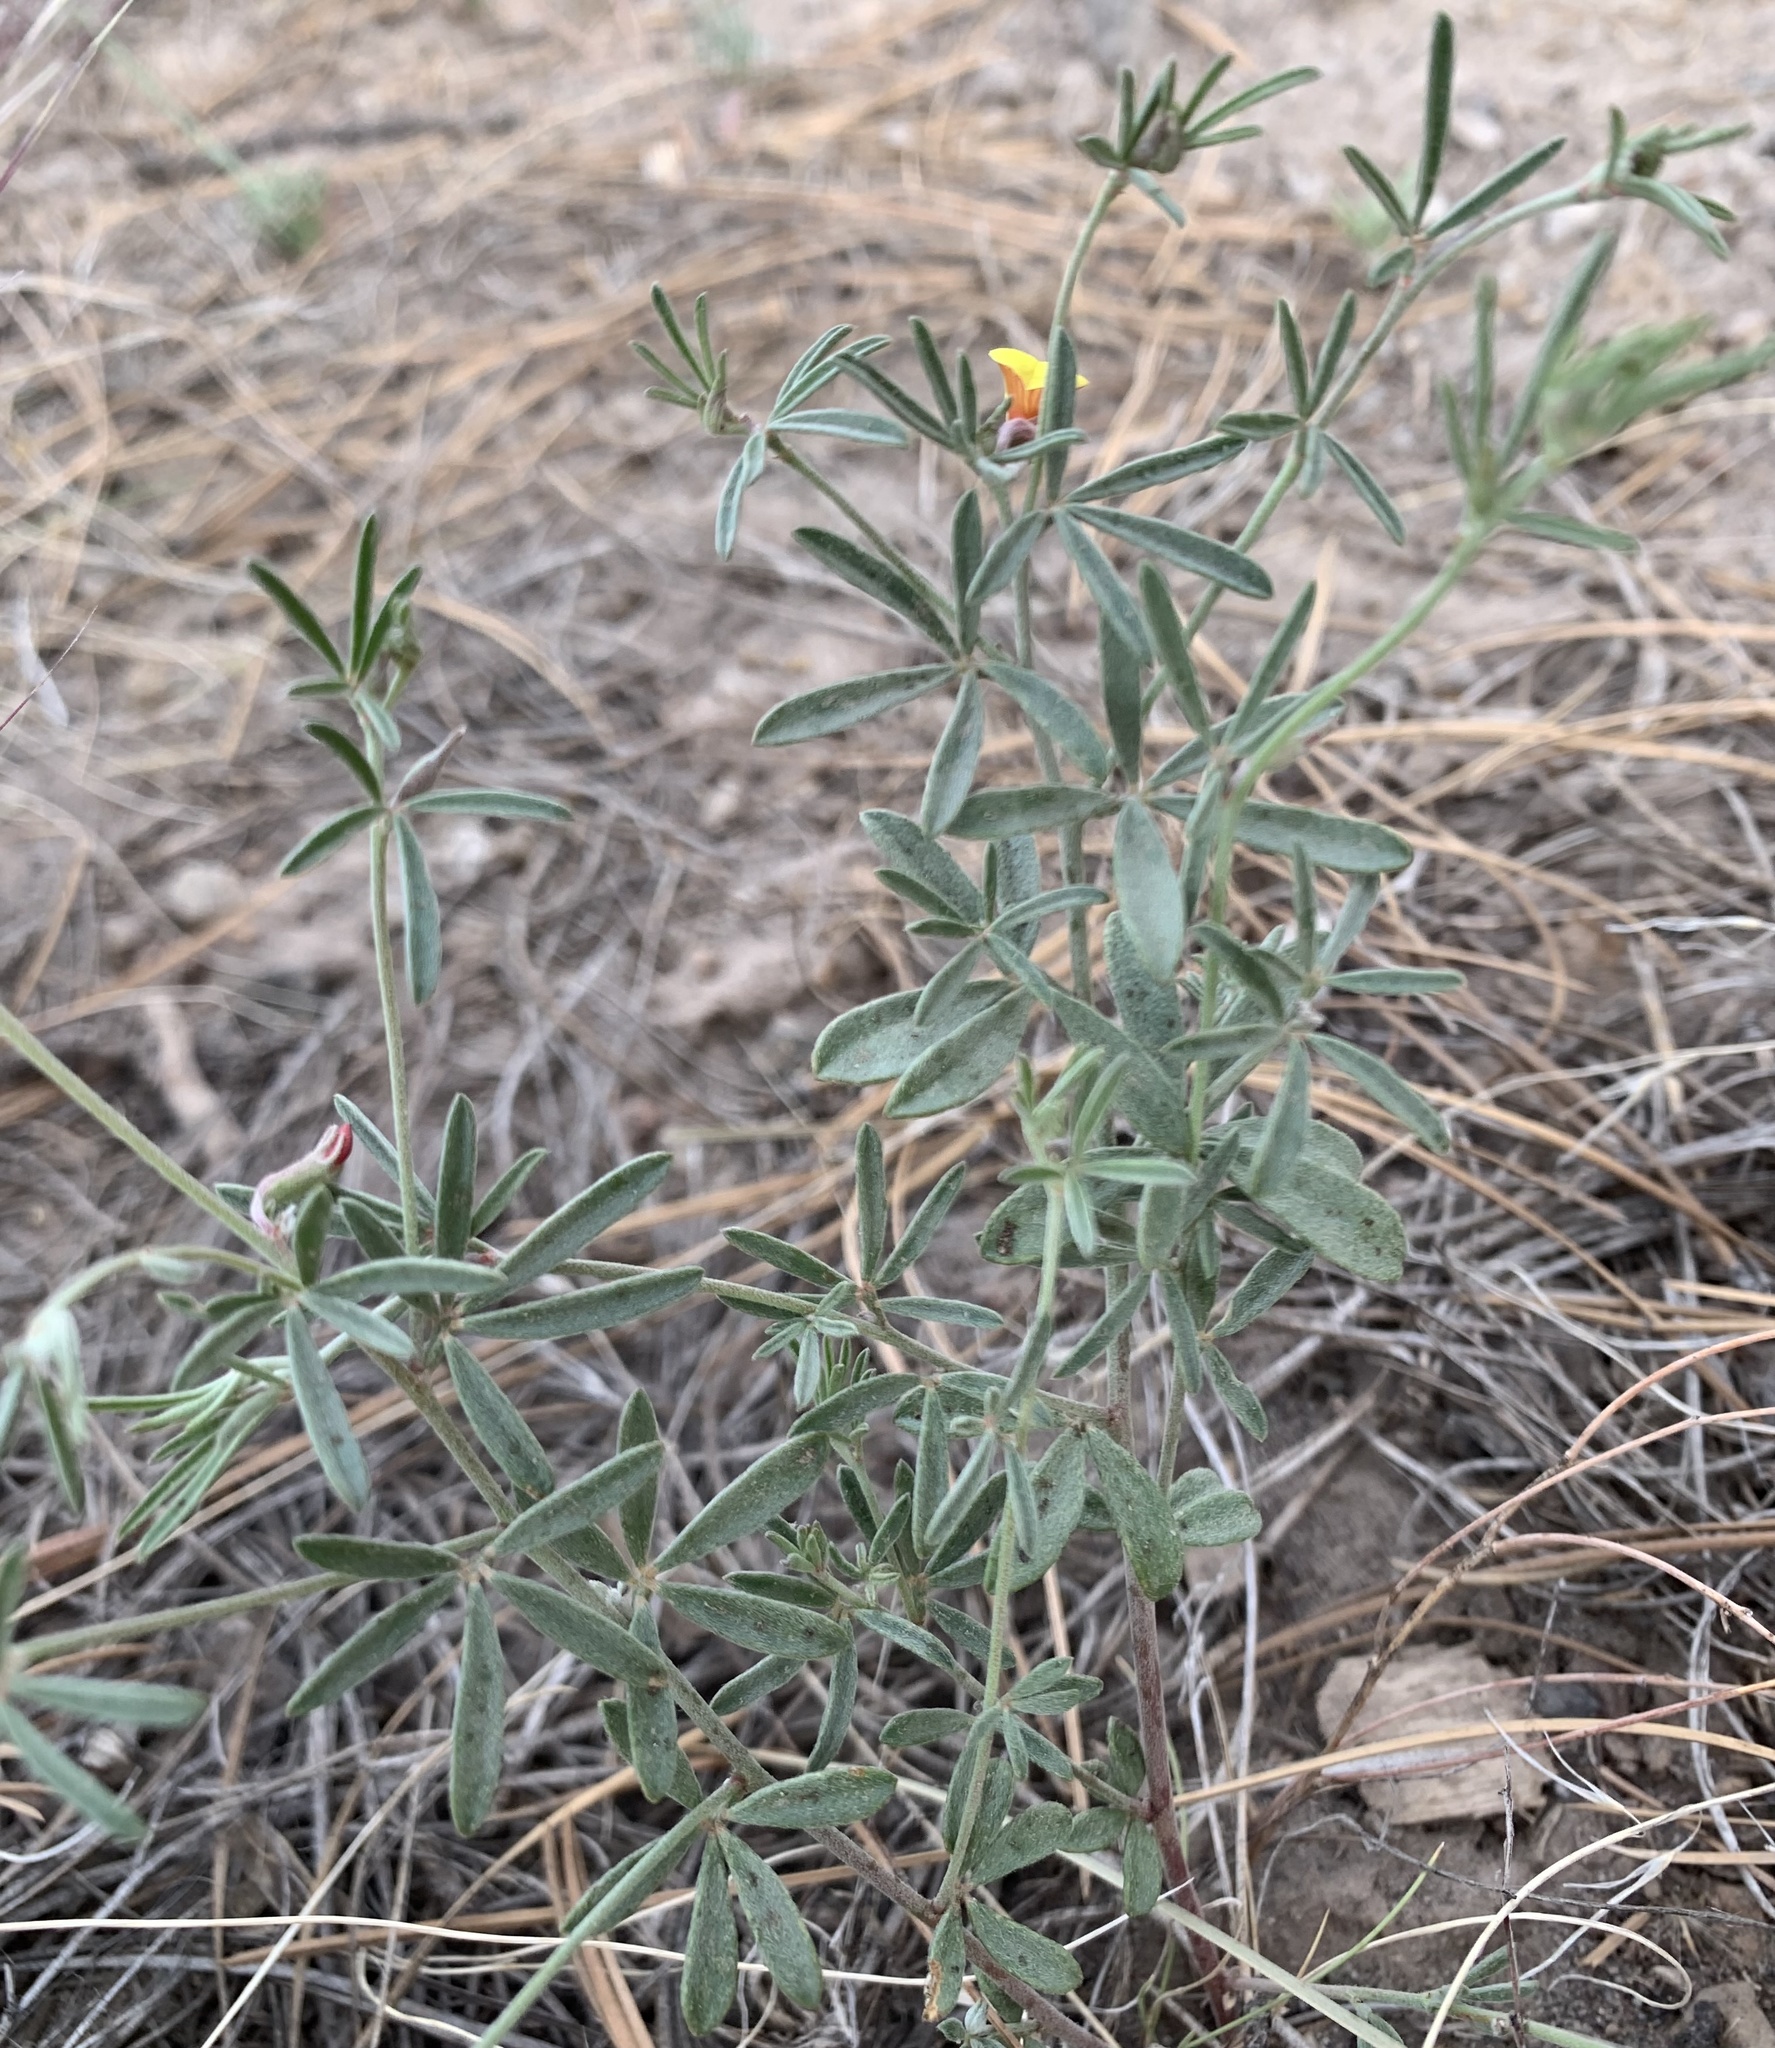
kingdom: Plantae
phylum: Tracheophyta
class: Magnoliopsida
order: Fabales
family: Fabaceae
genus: Acmispon
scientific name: Acmispon oroboides
